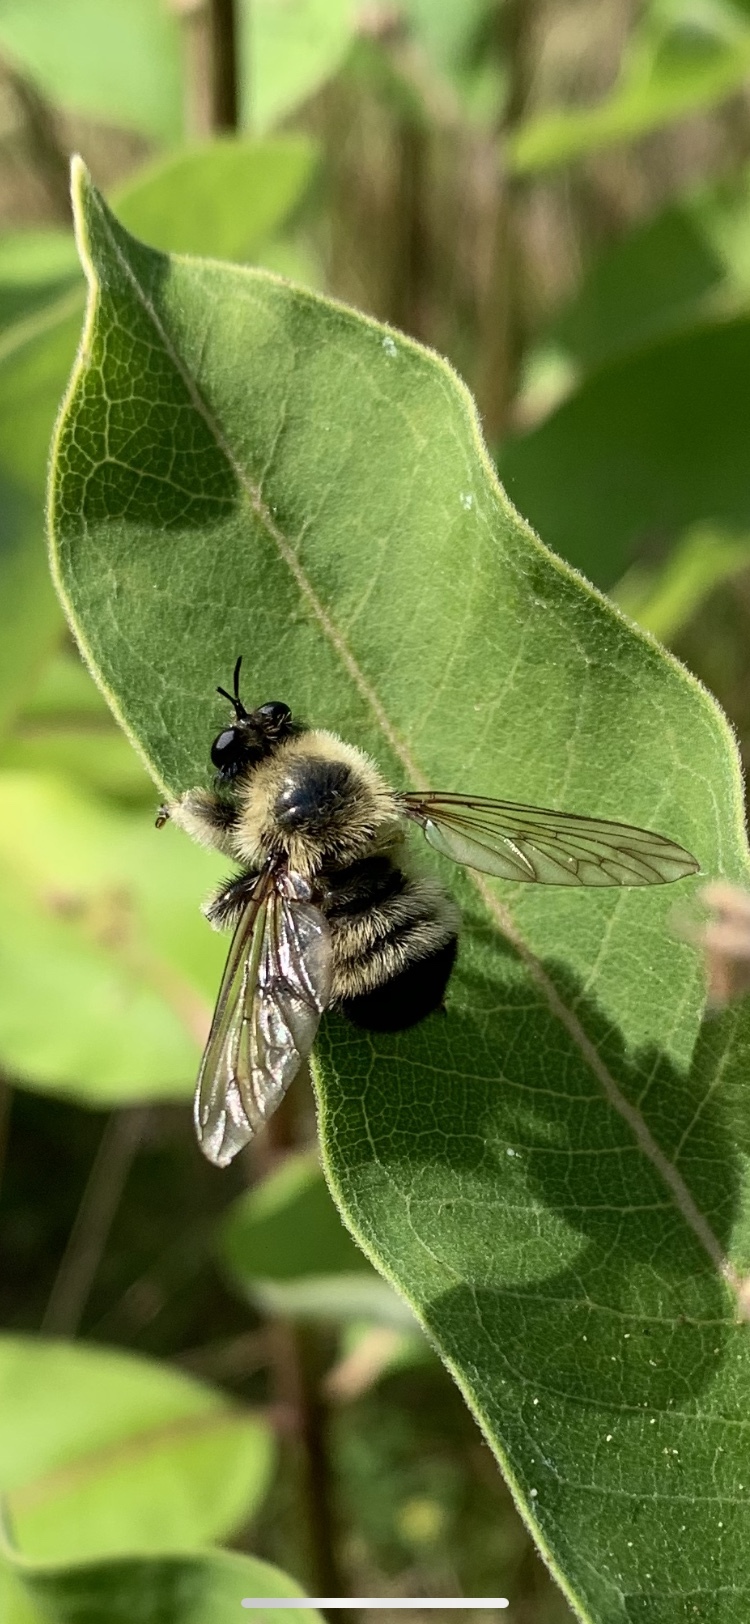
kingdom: Animalia
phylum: Arthropoda
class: Insecta
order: Diptera
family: Asilidae
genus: Laphria
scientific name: Laphria sacrator
